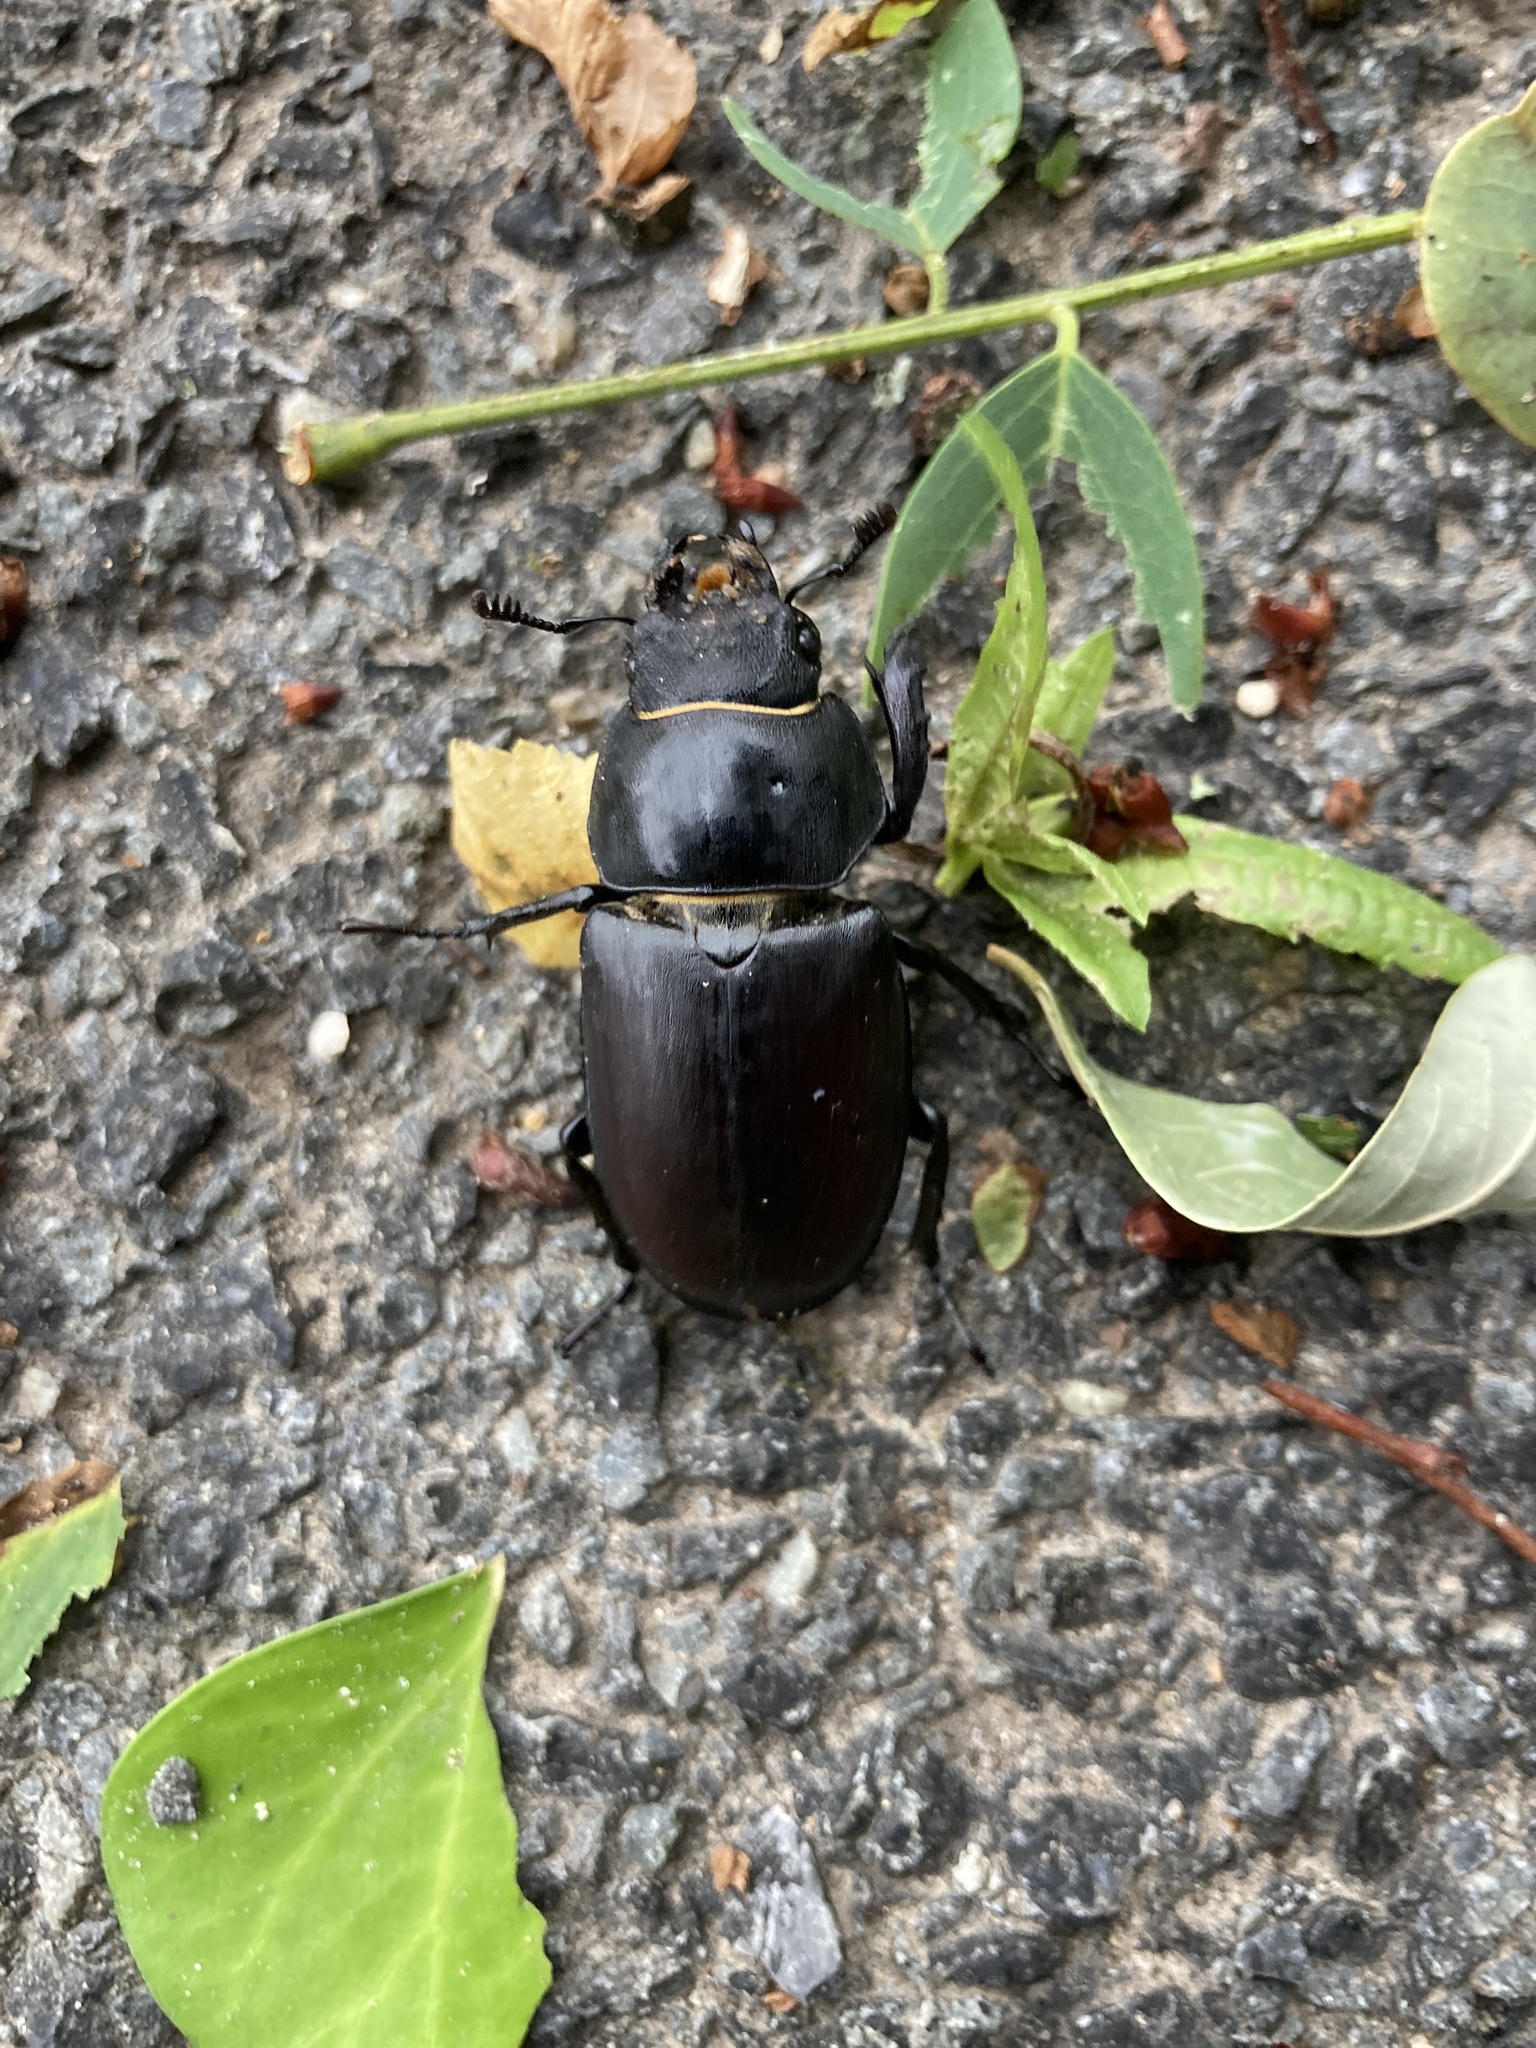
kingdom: Animalia
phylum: Arthropoda
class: Insecta
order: Coleoptera
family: Lucanidae
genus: Lucanus
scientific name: Lucanus cervus
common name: Stag beetle
